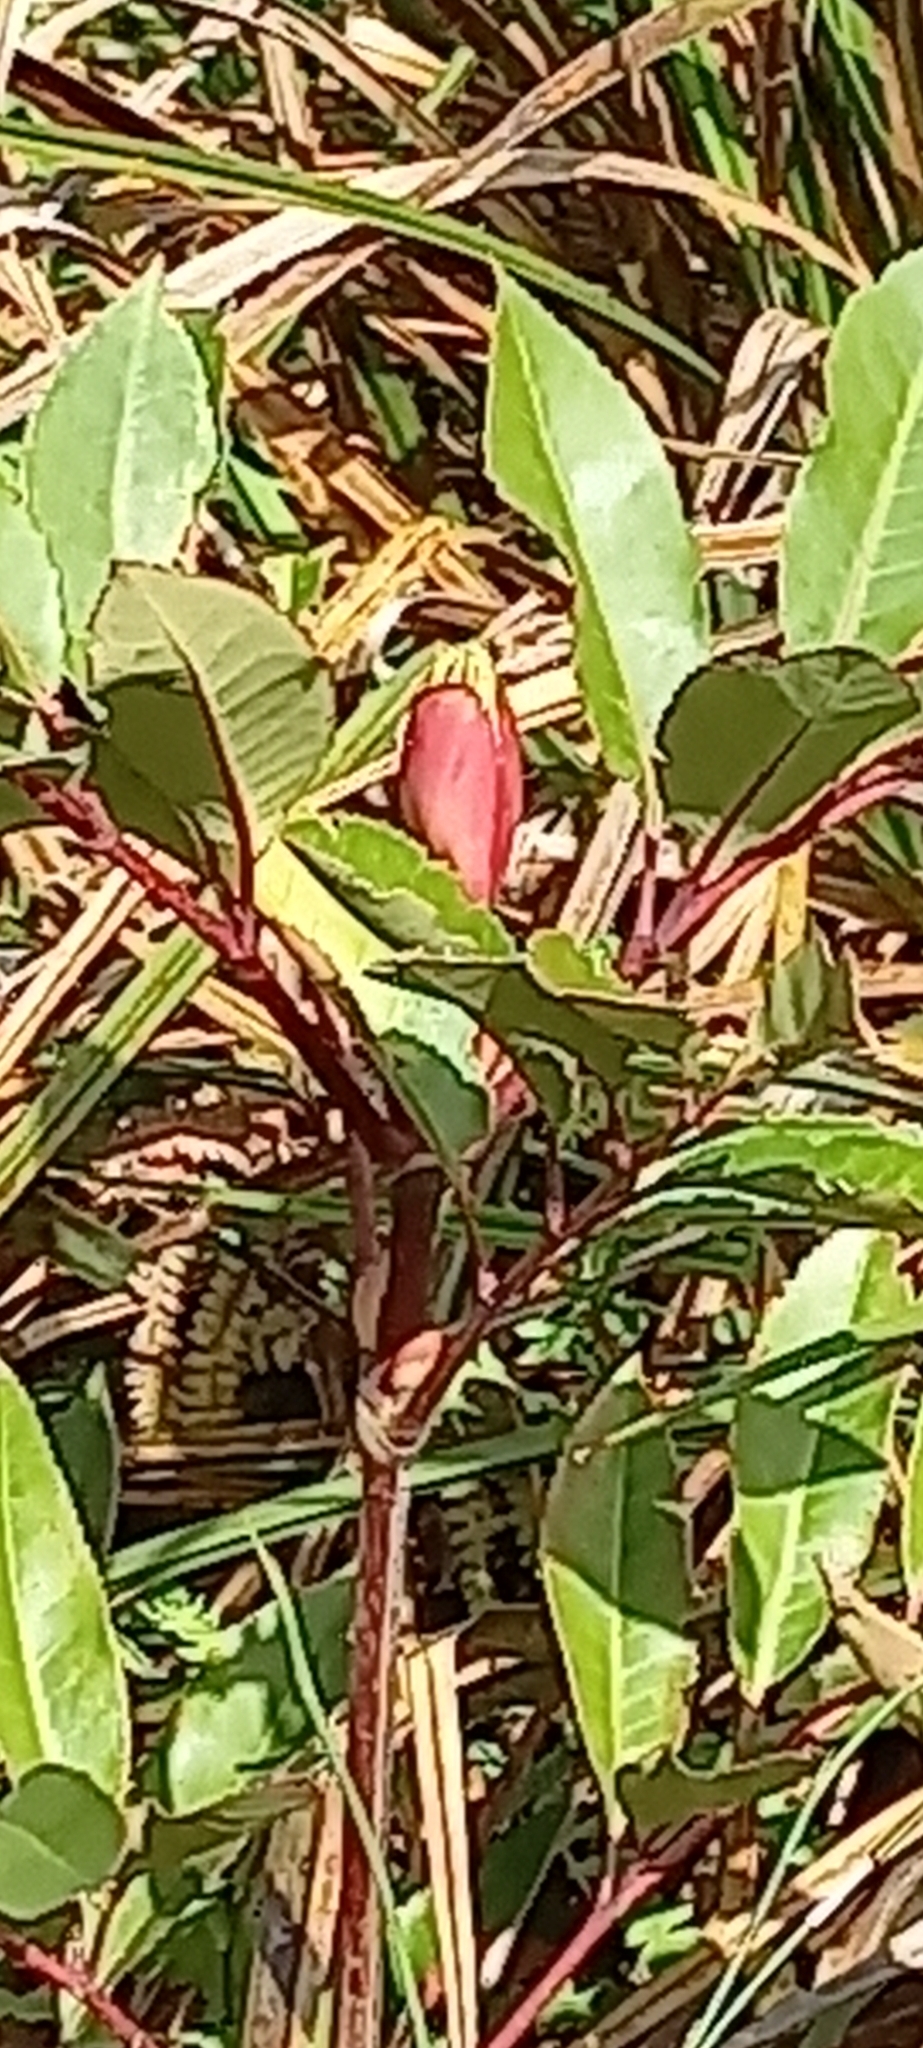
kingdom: Plantae
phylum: Tracheophyta
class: Magnoliopsida
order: Oxalidales
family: Cunoniaceae
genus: Cunonia
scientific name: Cunonia capensis
